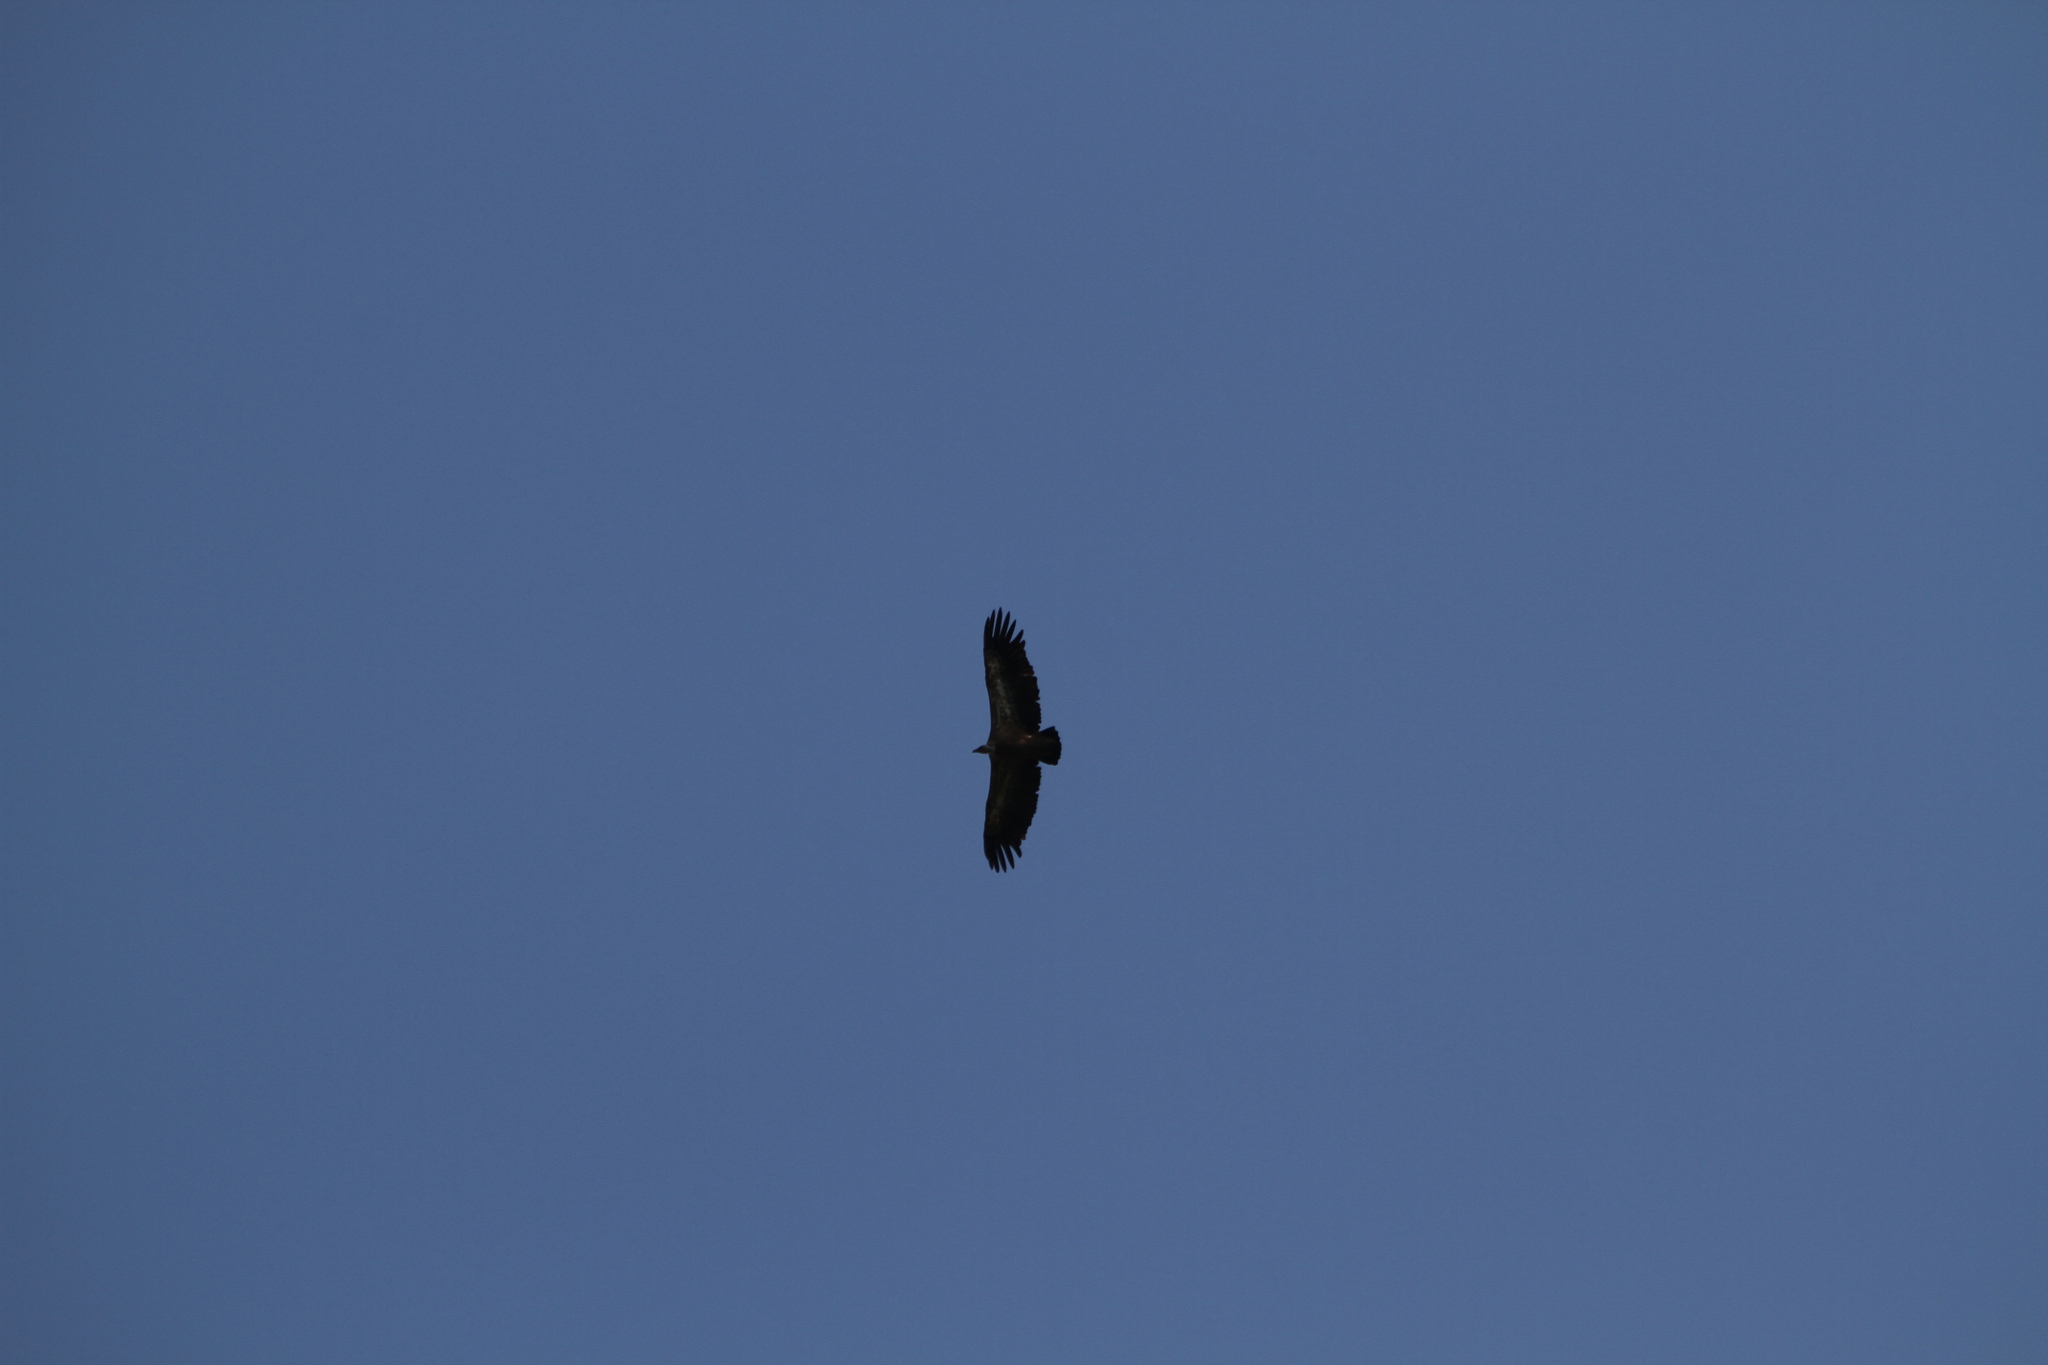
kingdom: Animalia
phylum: Chordata
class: Aves
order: Accipitriformes
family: Accipitridae
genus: Gyps
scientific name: Gyps fulvus
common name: Griffon vulture
